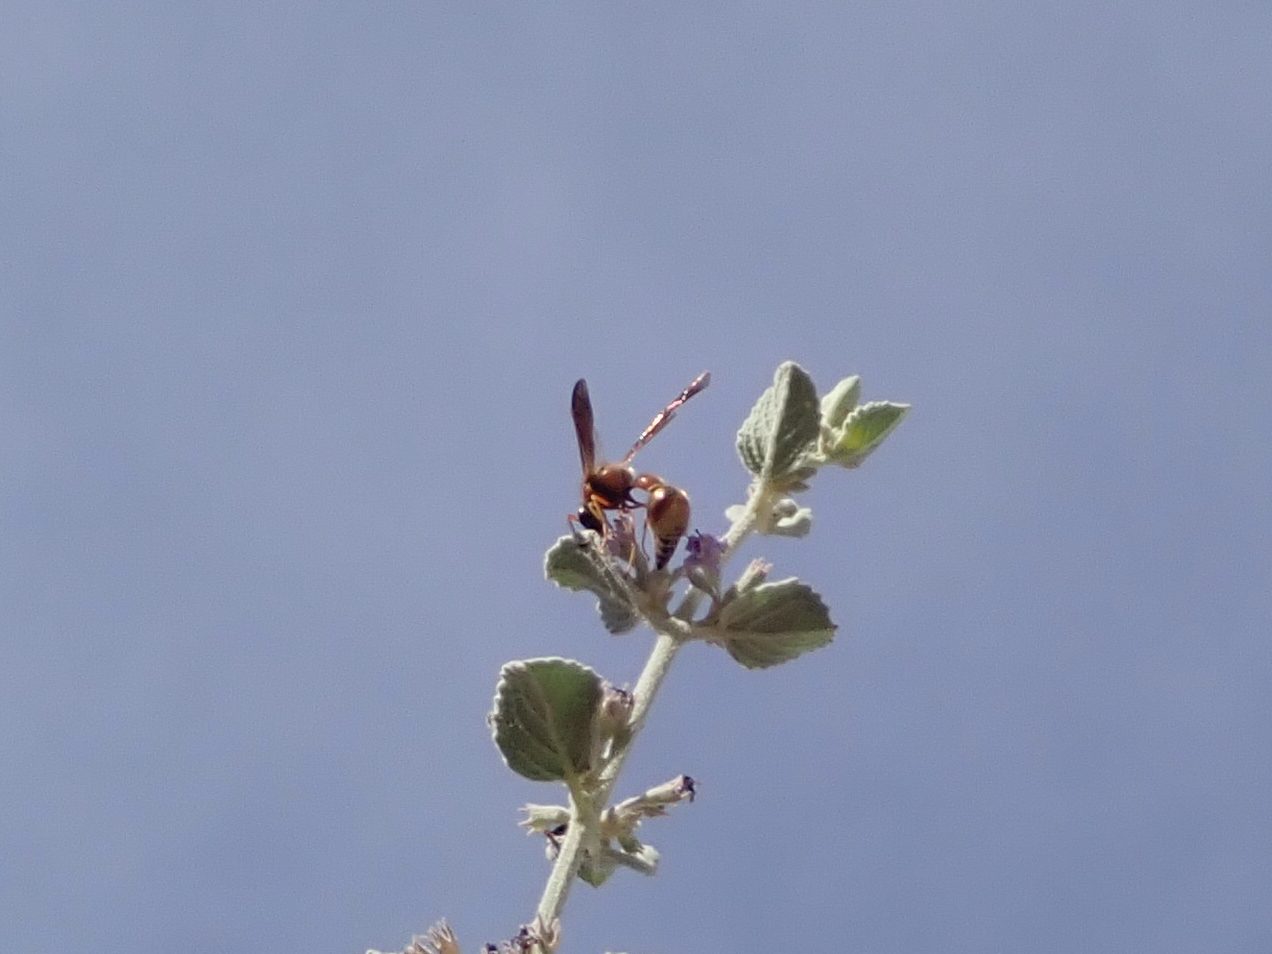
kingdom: Animalia
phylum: Arthropoda
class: Insecta
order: Hymenoptera
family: Vespidae
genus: Eumenes
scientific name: Eumenes bollii
